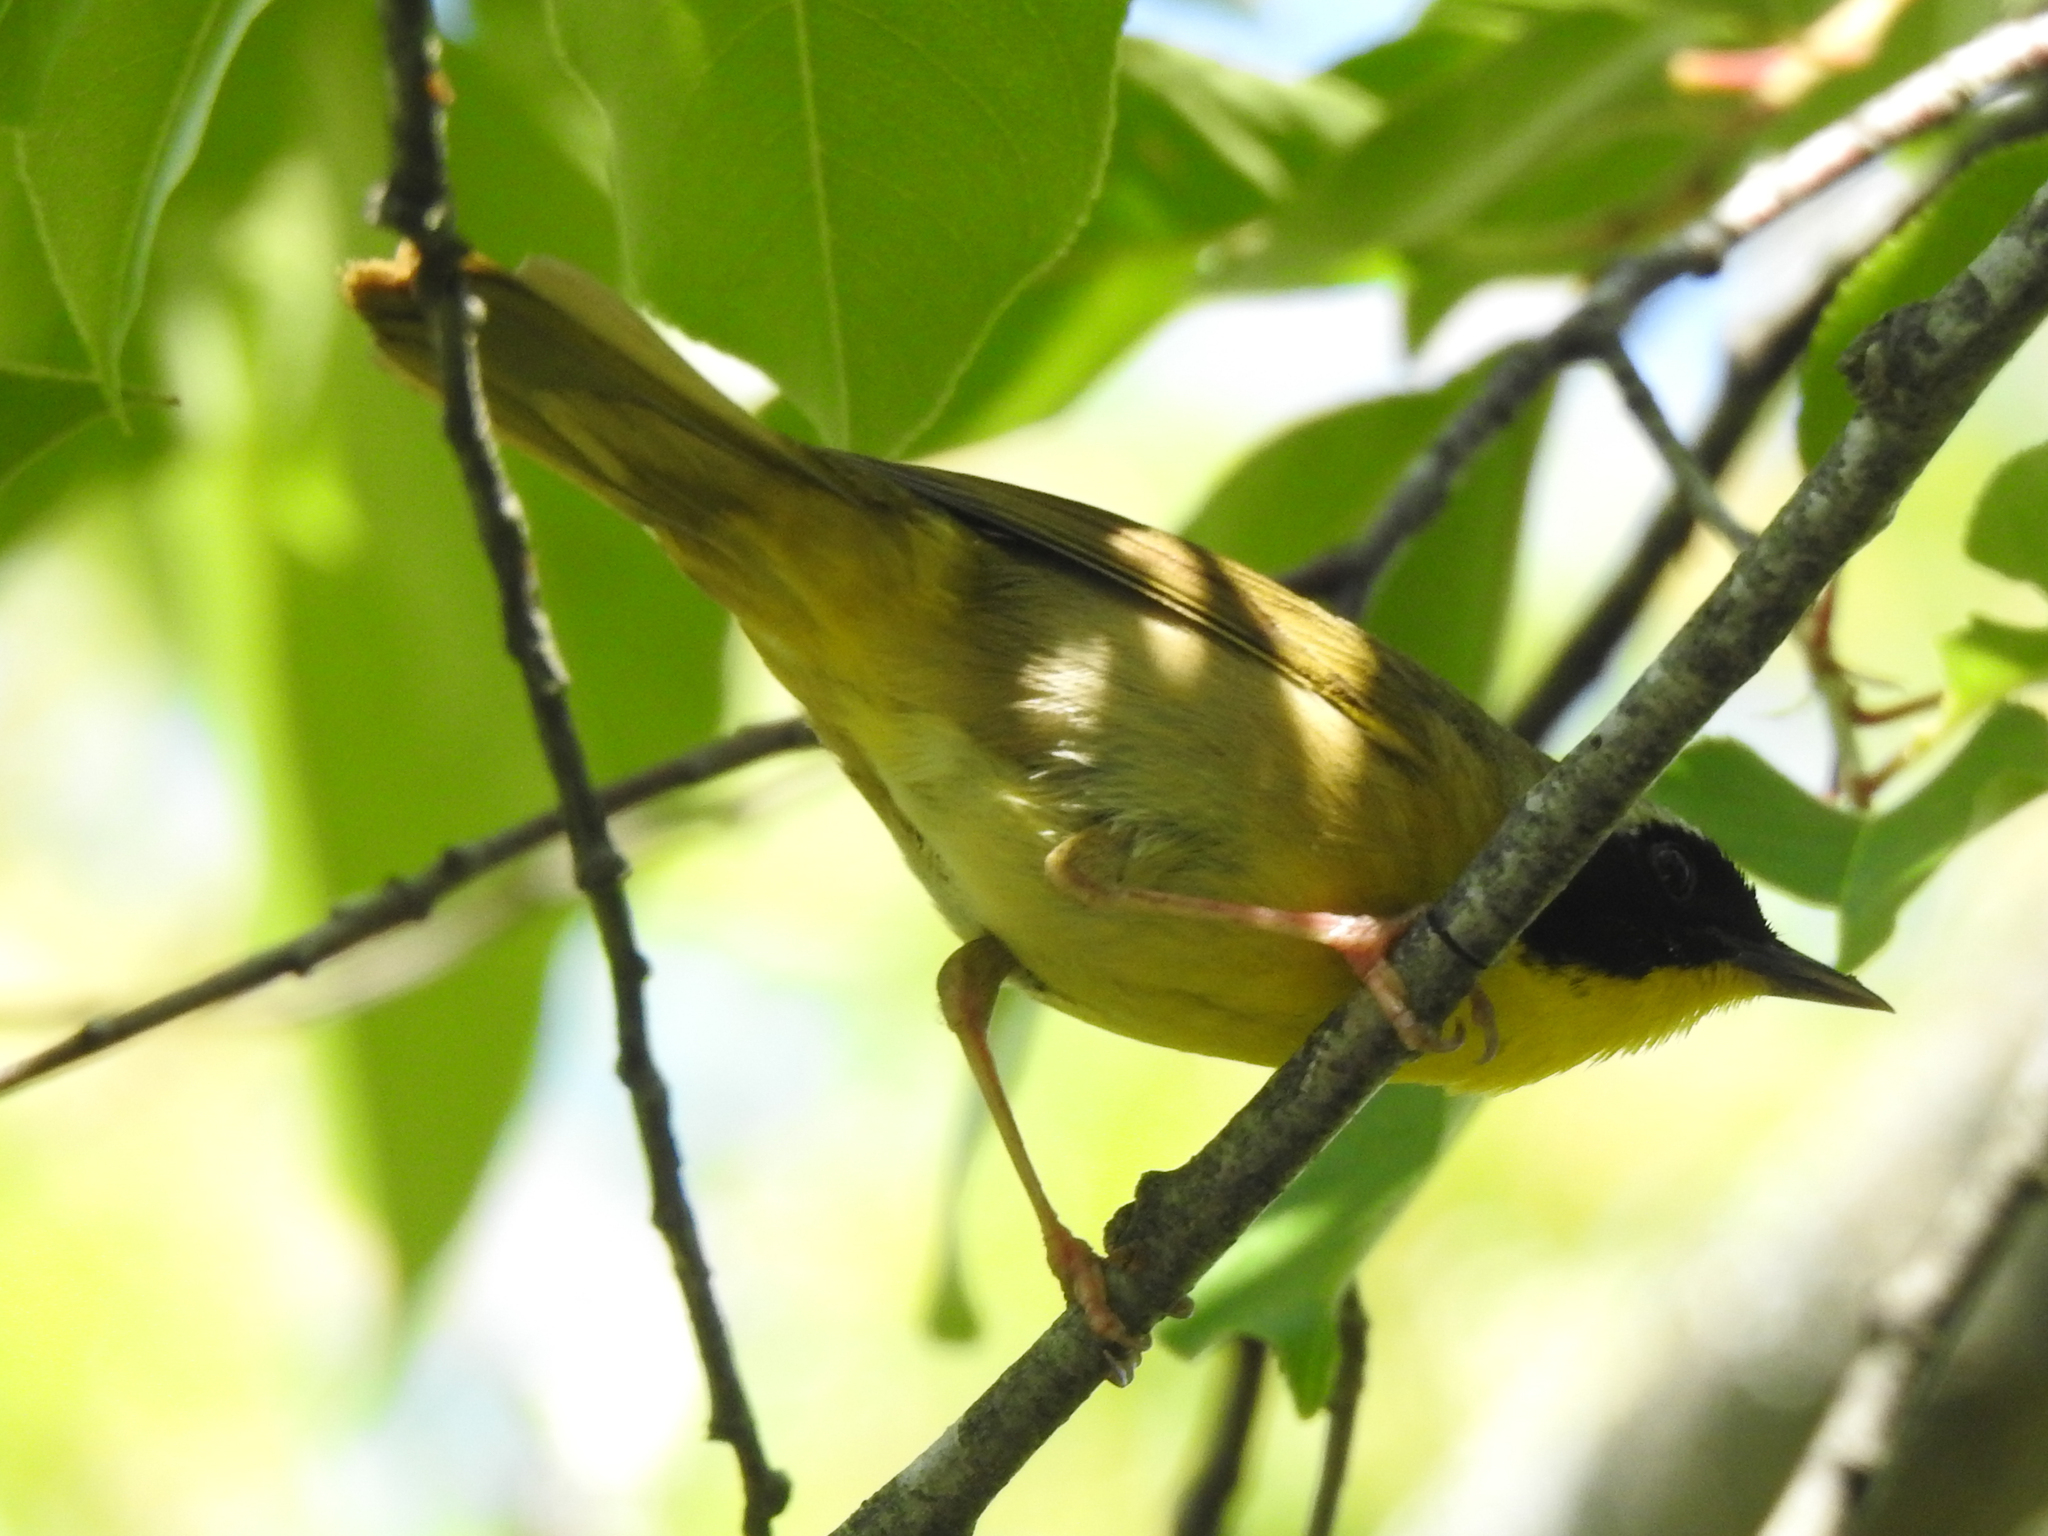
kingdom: Animalia
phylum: Chordata
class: Aves
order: Passeriformes
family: Parulidae
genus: Geothlypis
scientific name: Geothlypis trichas
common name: Common yellowthroat
